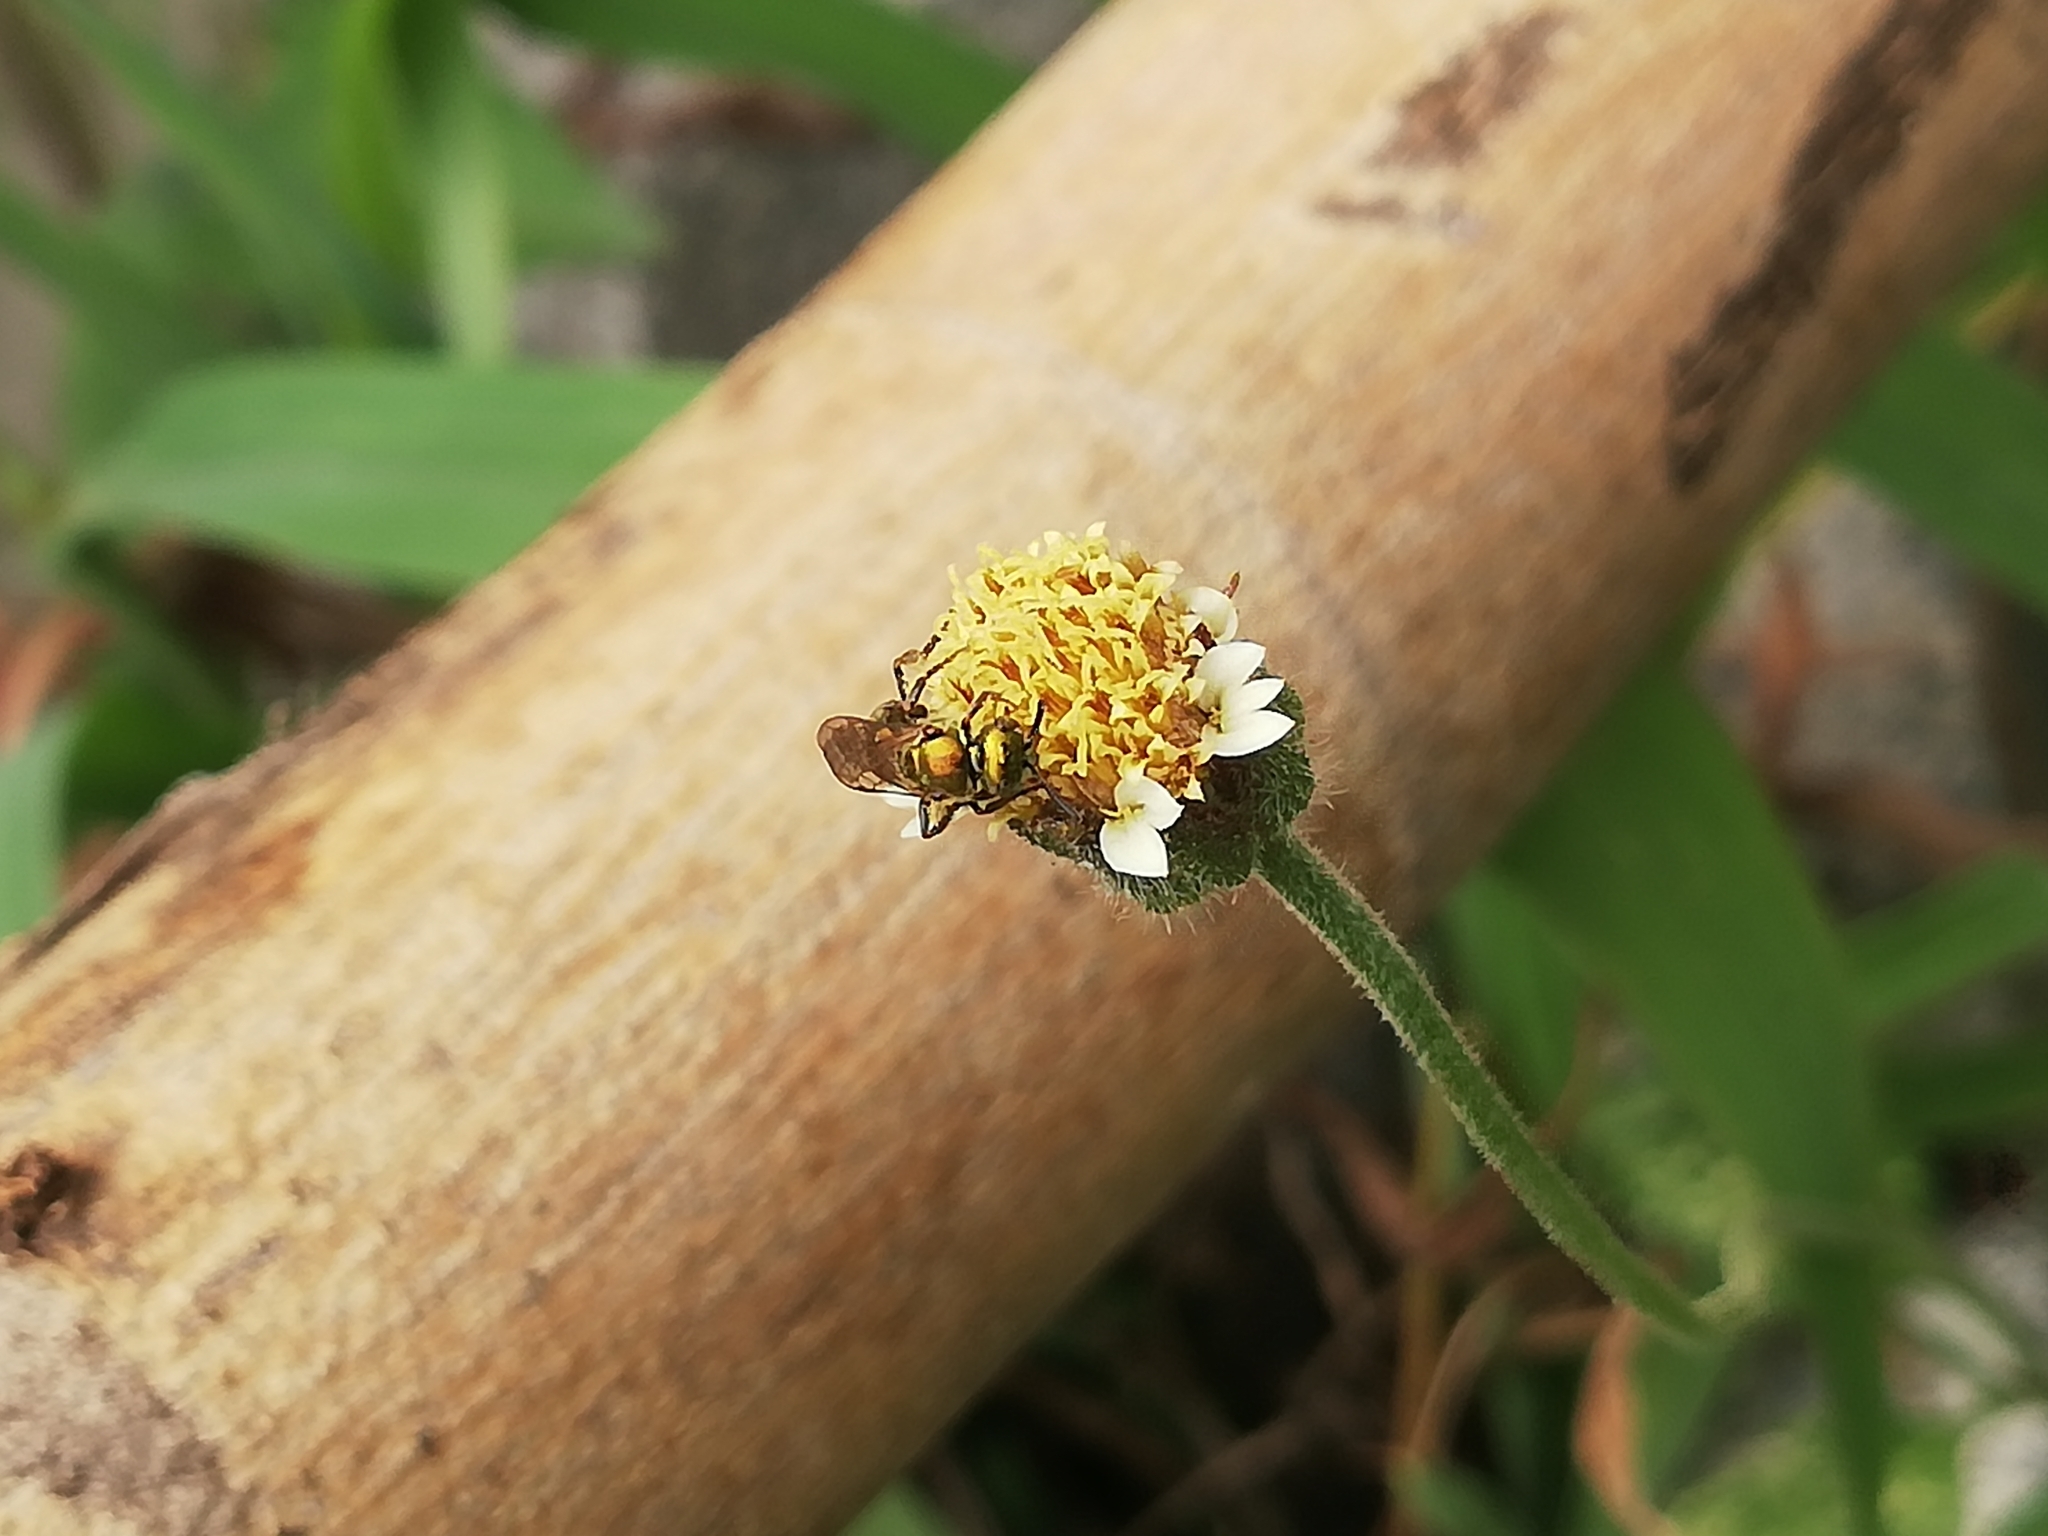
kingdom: Animalia
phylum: Arthropoda
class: Insecta
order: Hymenoptera
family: Halictidae
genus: Augochlora
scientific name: Augochlora aurifera
